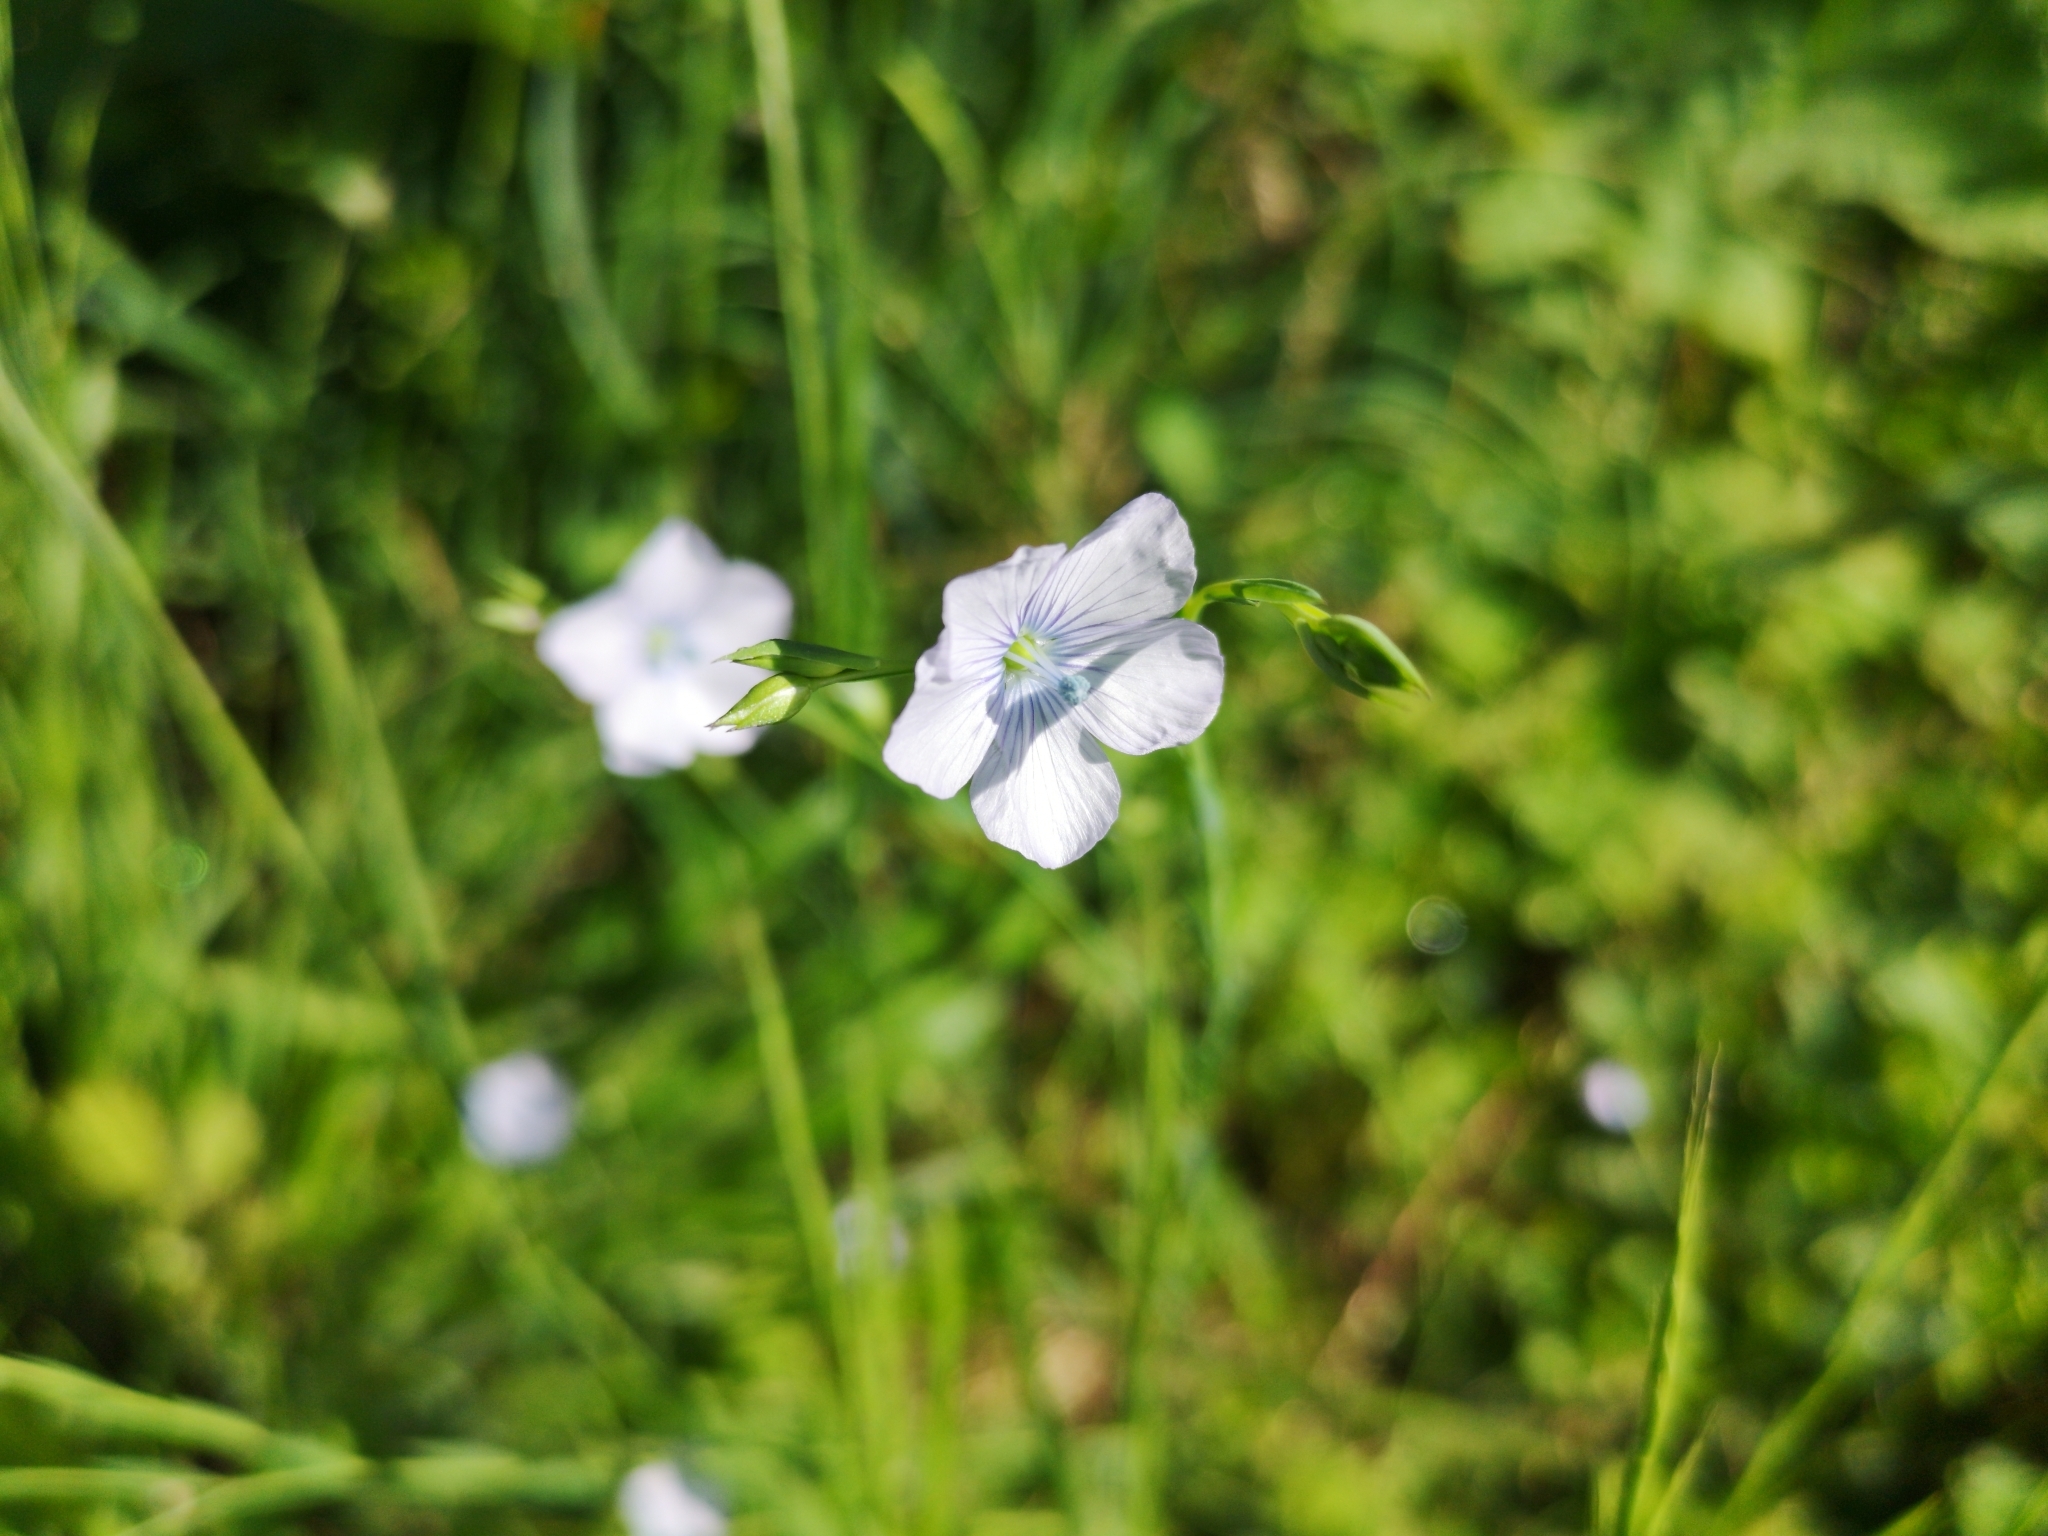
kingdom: Plantae
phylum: Tracheophyta
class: Magnoliopsida
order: Malpighiales
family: Linaceae
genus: Linum
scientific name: Linum bienne
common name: Pale flax
